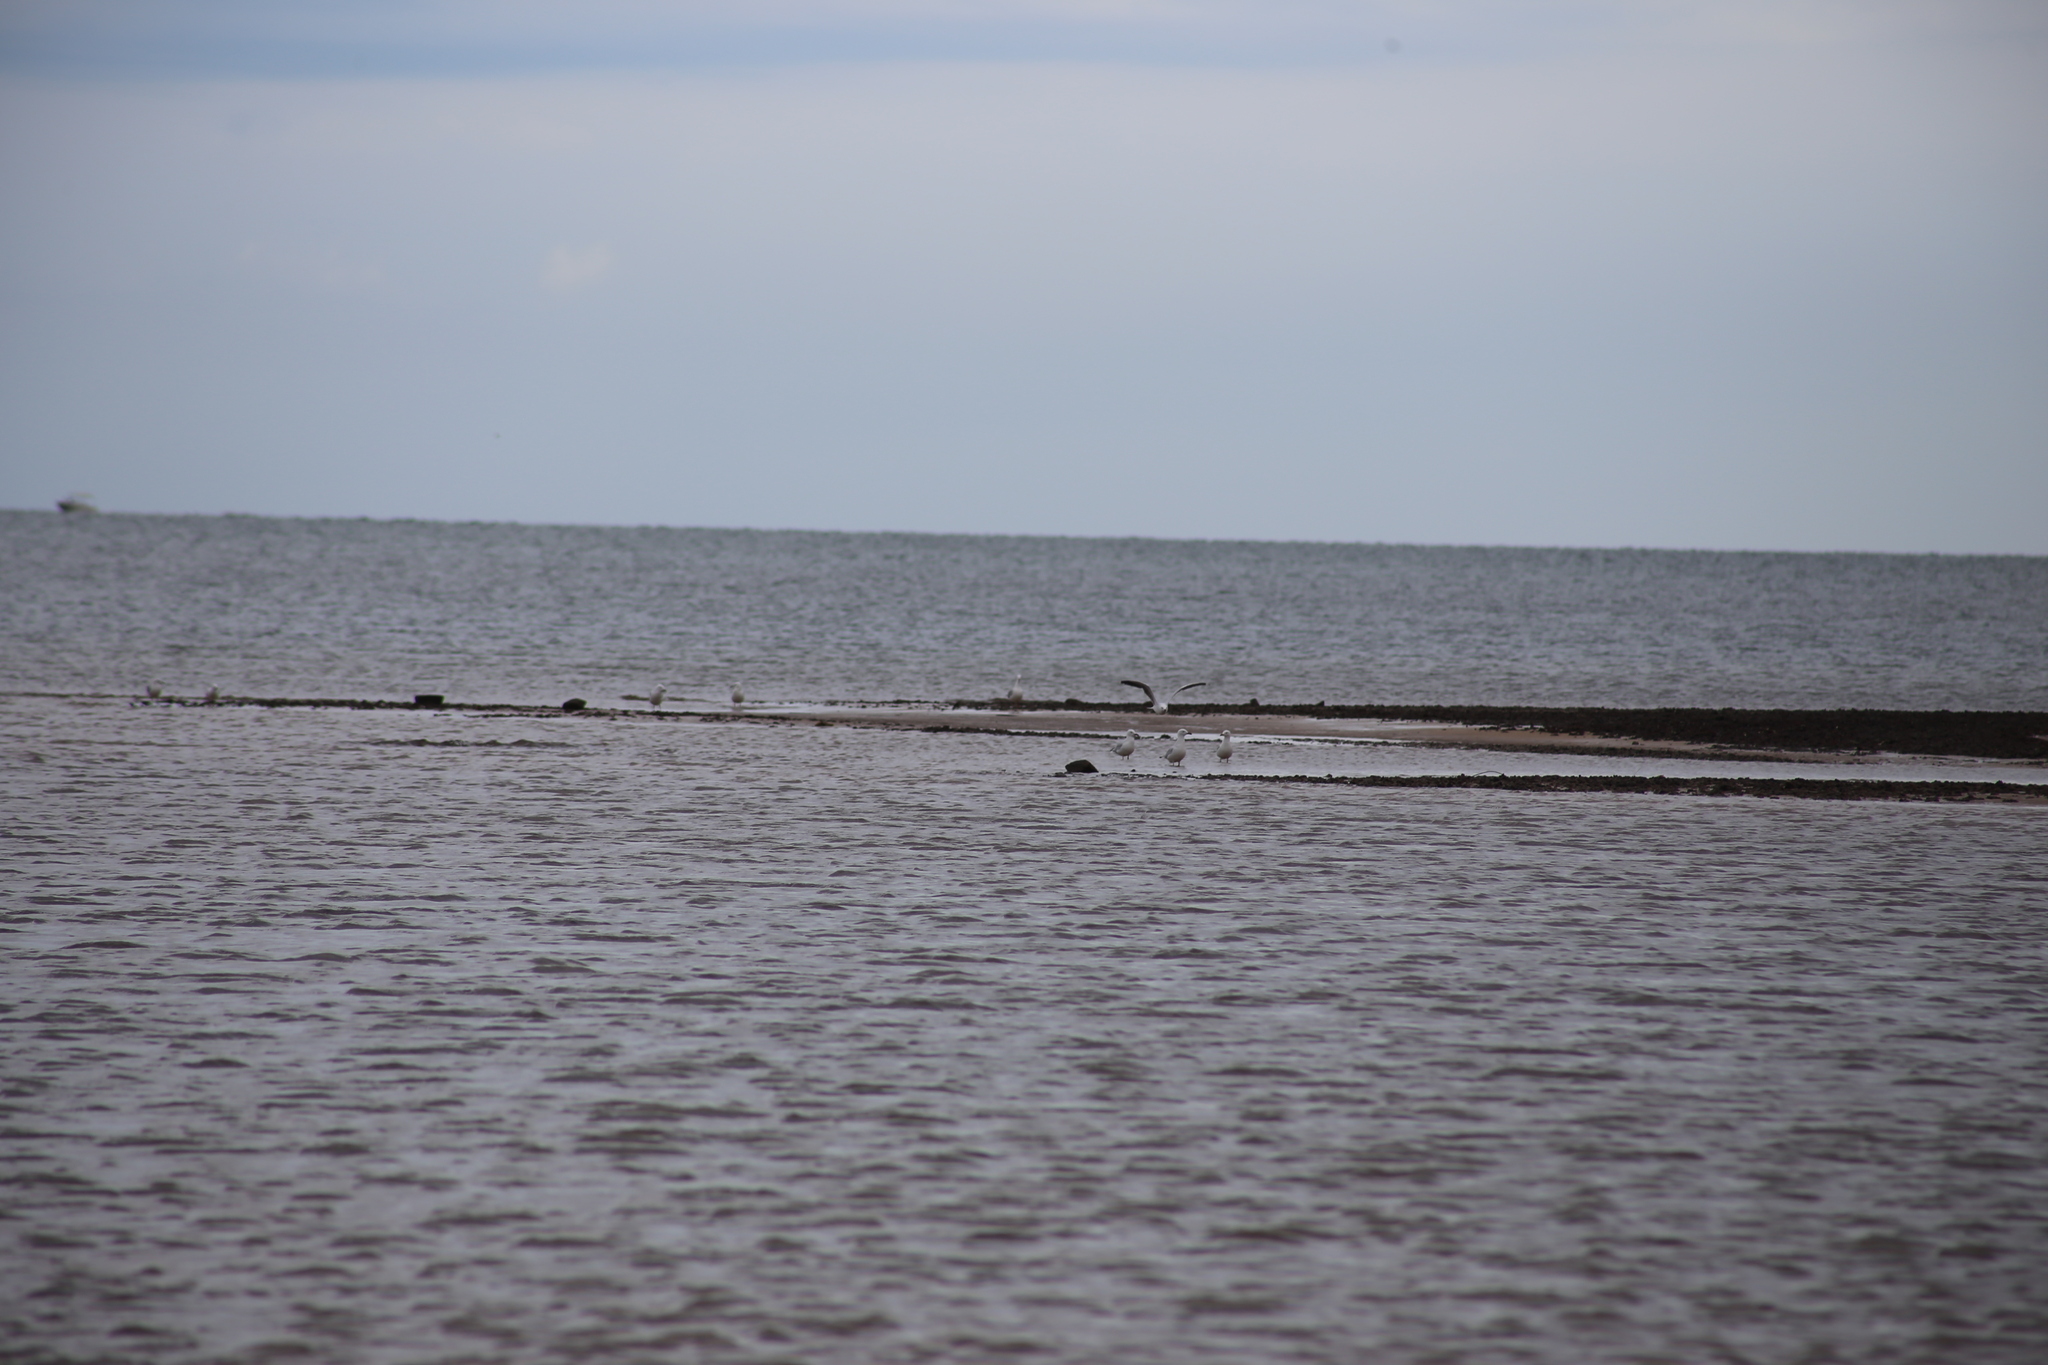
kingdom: Animalia
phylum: Chordata
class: Aves
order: Charadriiformes
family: Laridae
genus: Chroicocephalus
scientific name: Chroicocephalus novaehollandiae
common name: Silver gull
